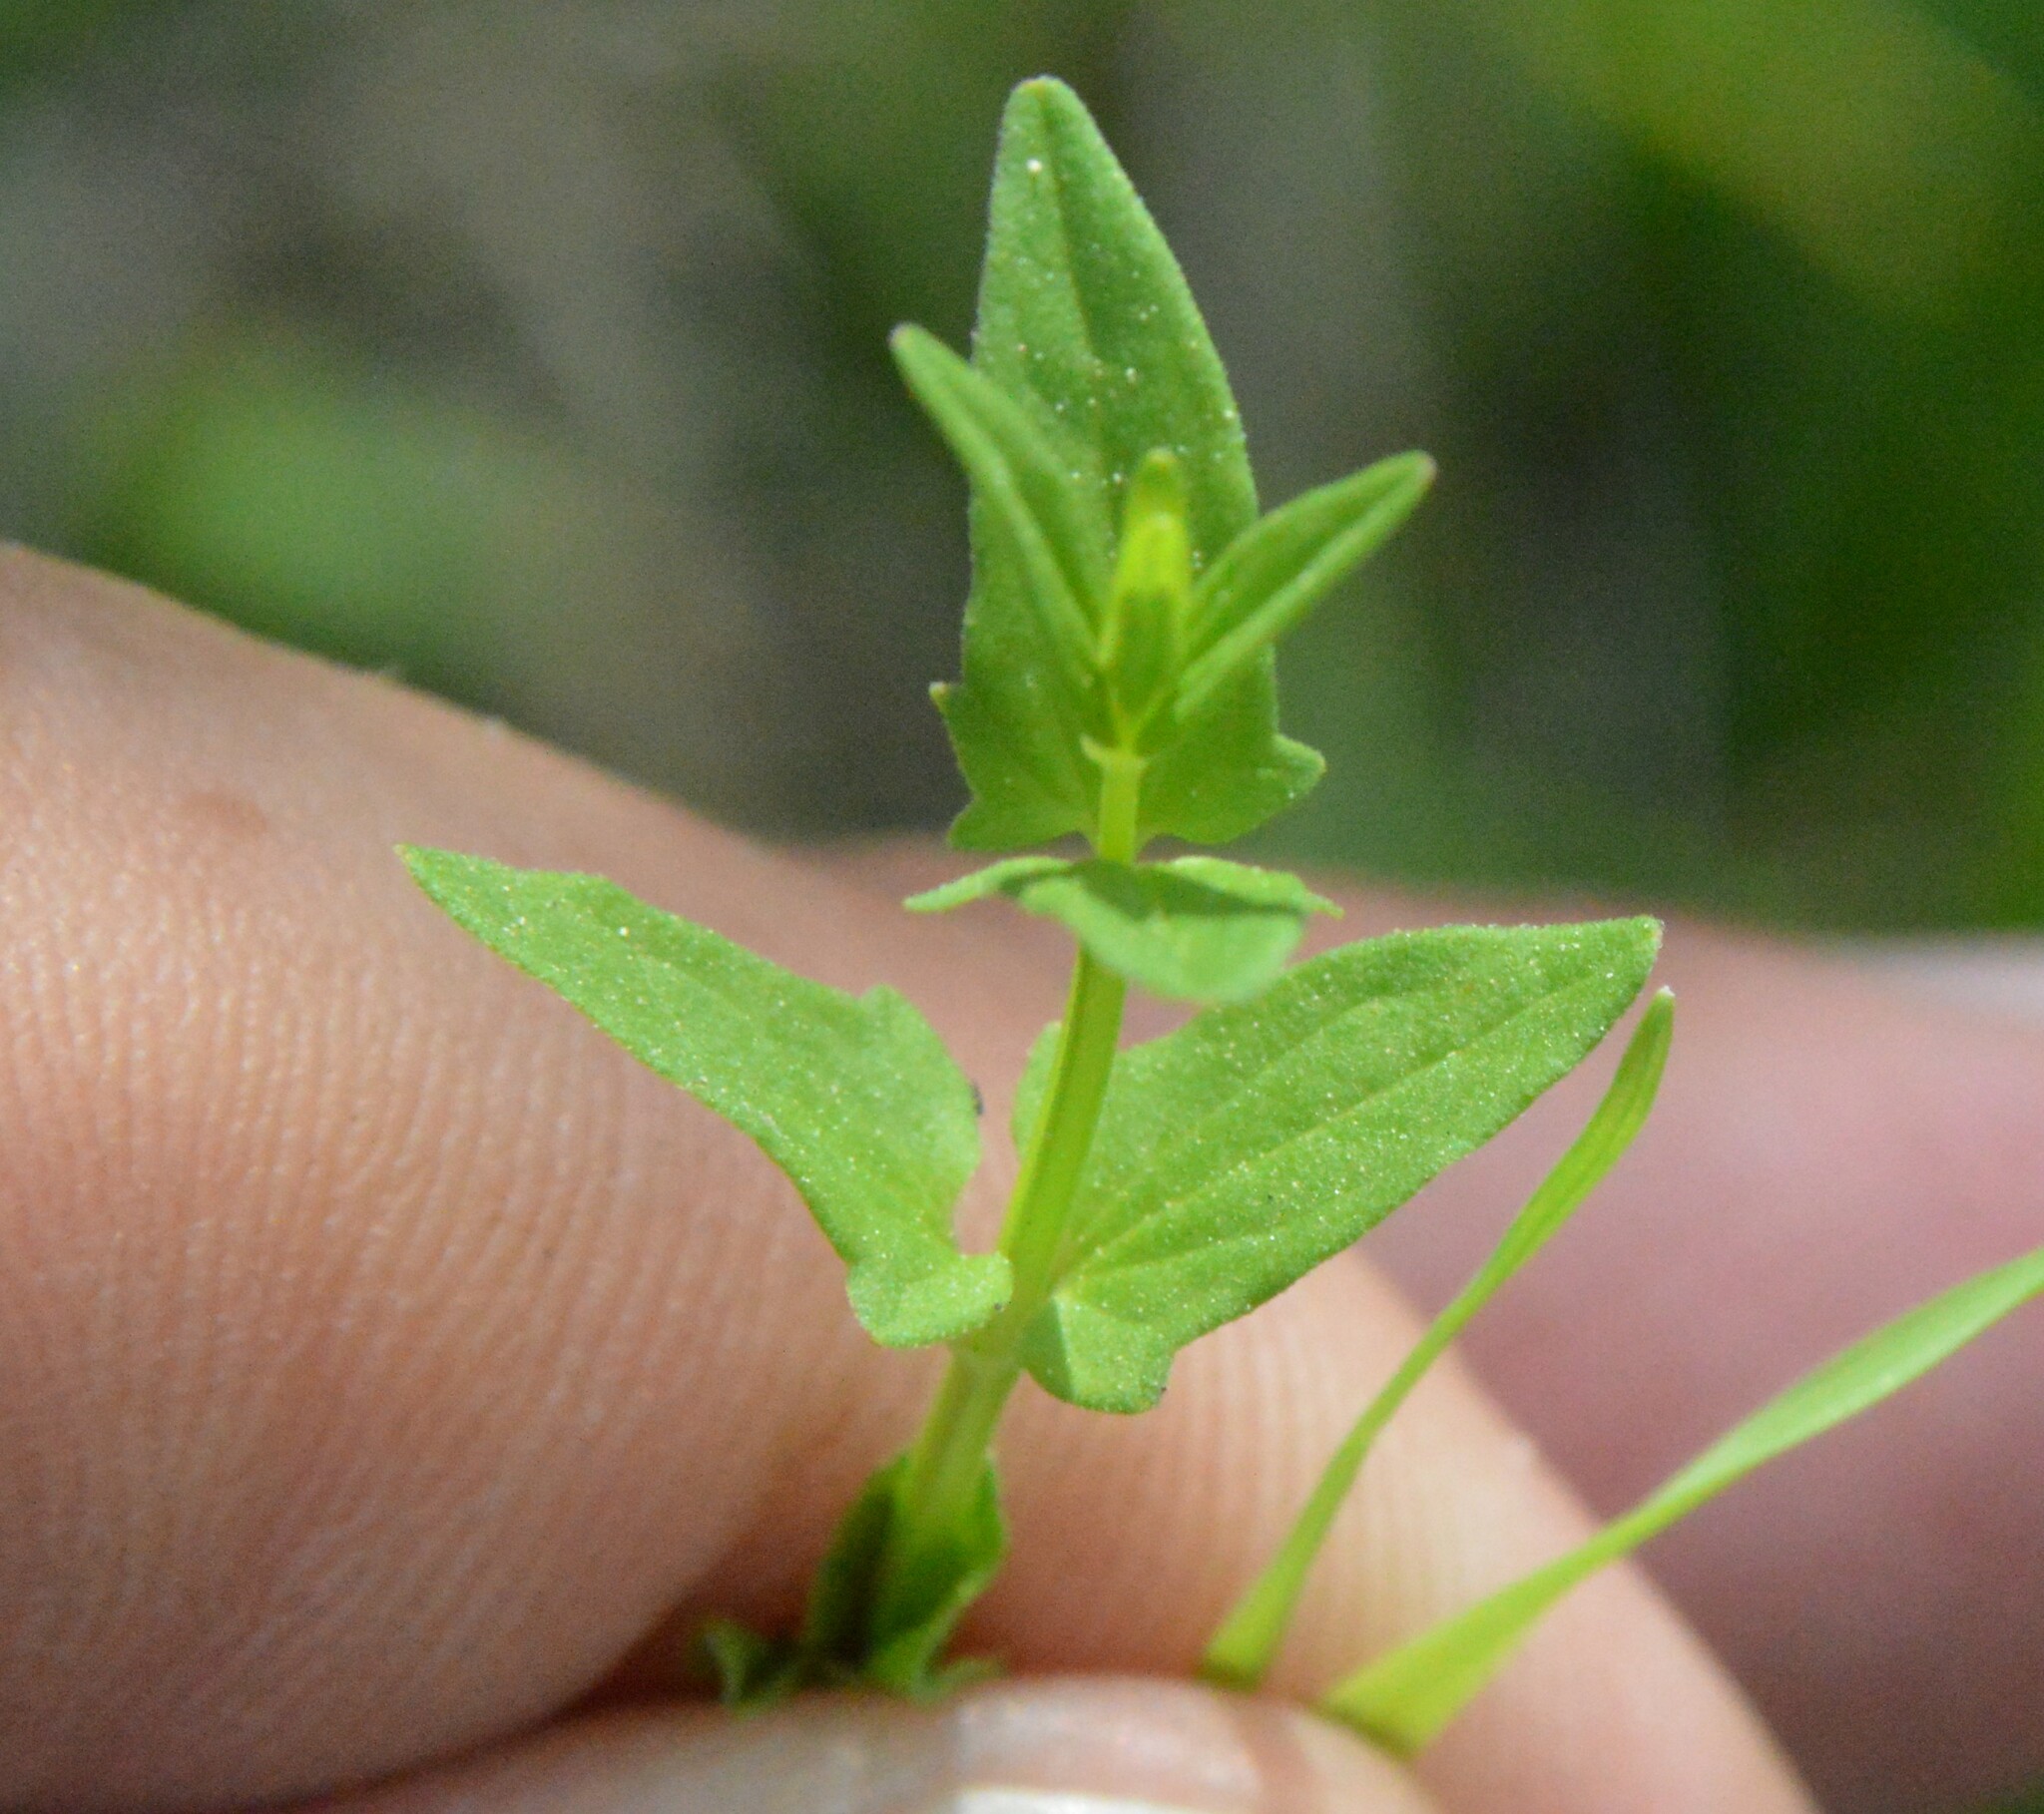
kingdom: Plantae
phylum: Tracheophyta
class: Magnoliopsida
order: Lamiales
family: Lamiaceae
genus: Scutellaria
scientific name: Scutellaria racemosa
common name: South american skullcap
